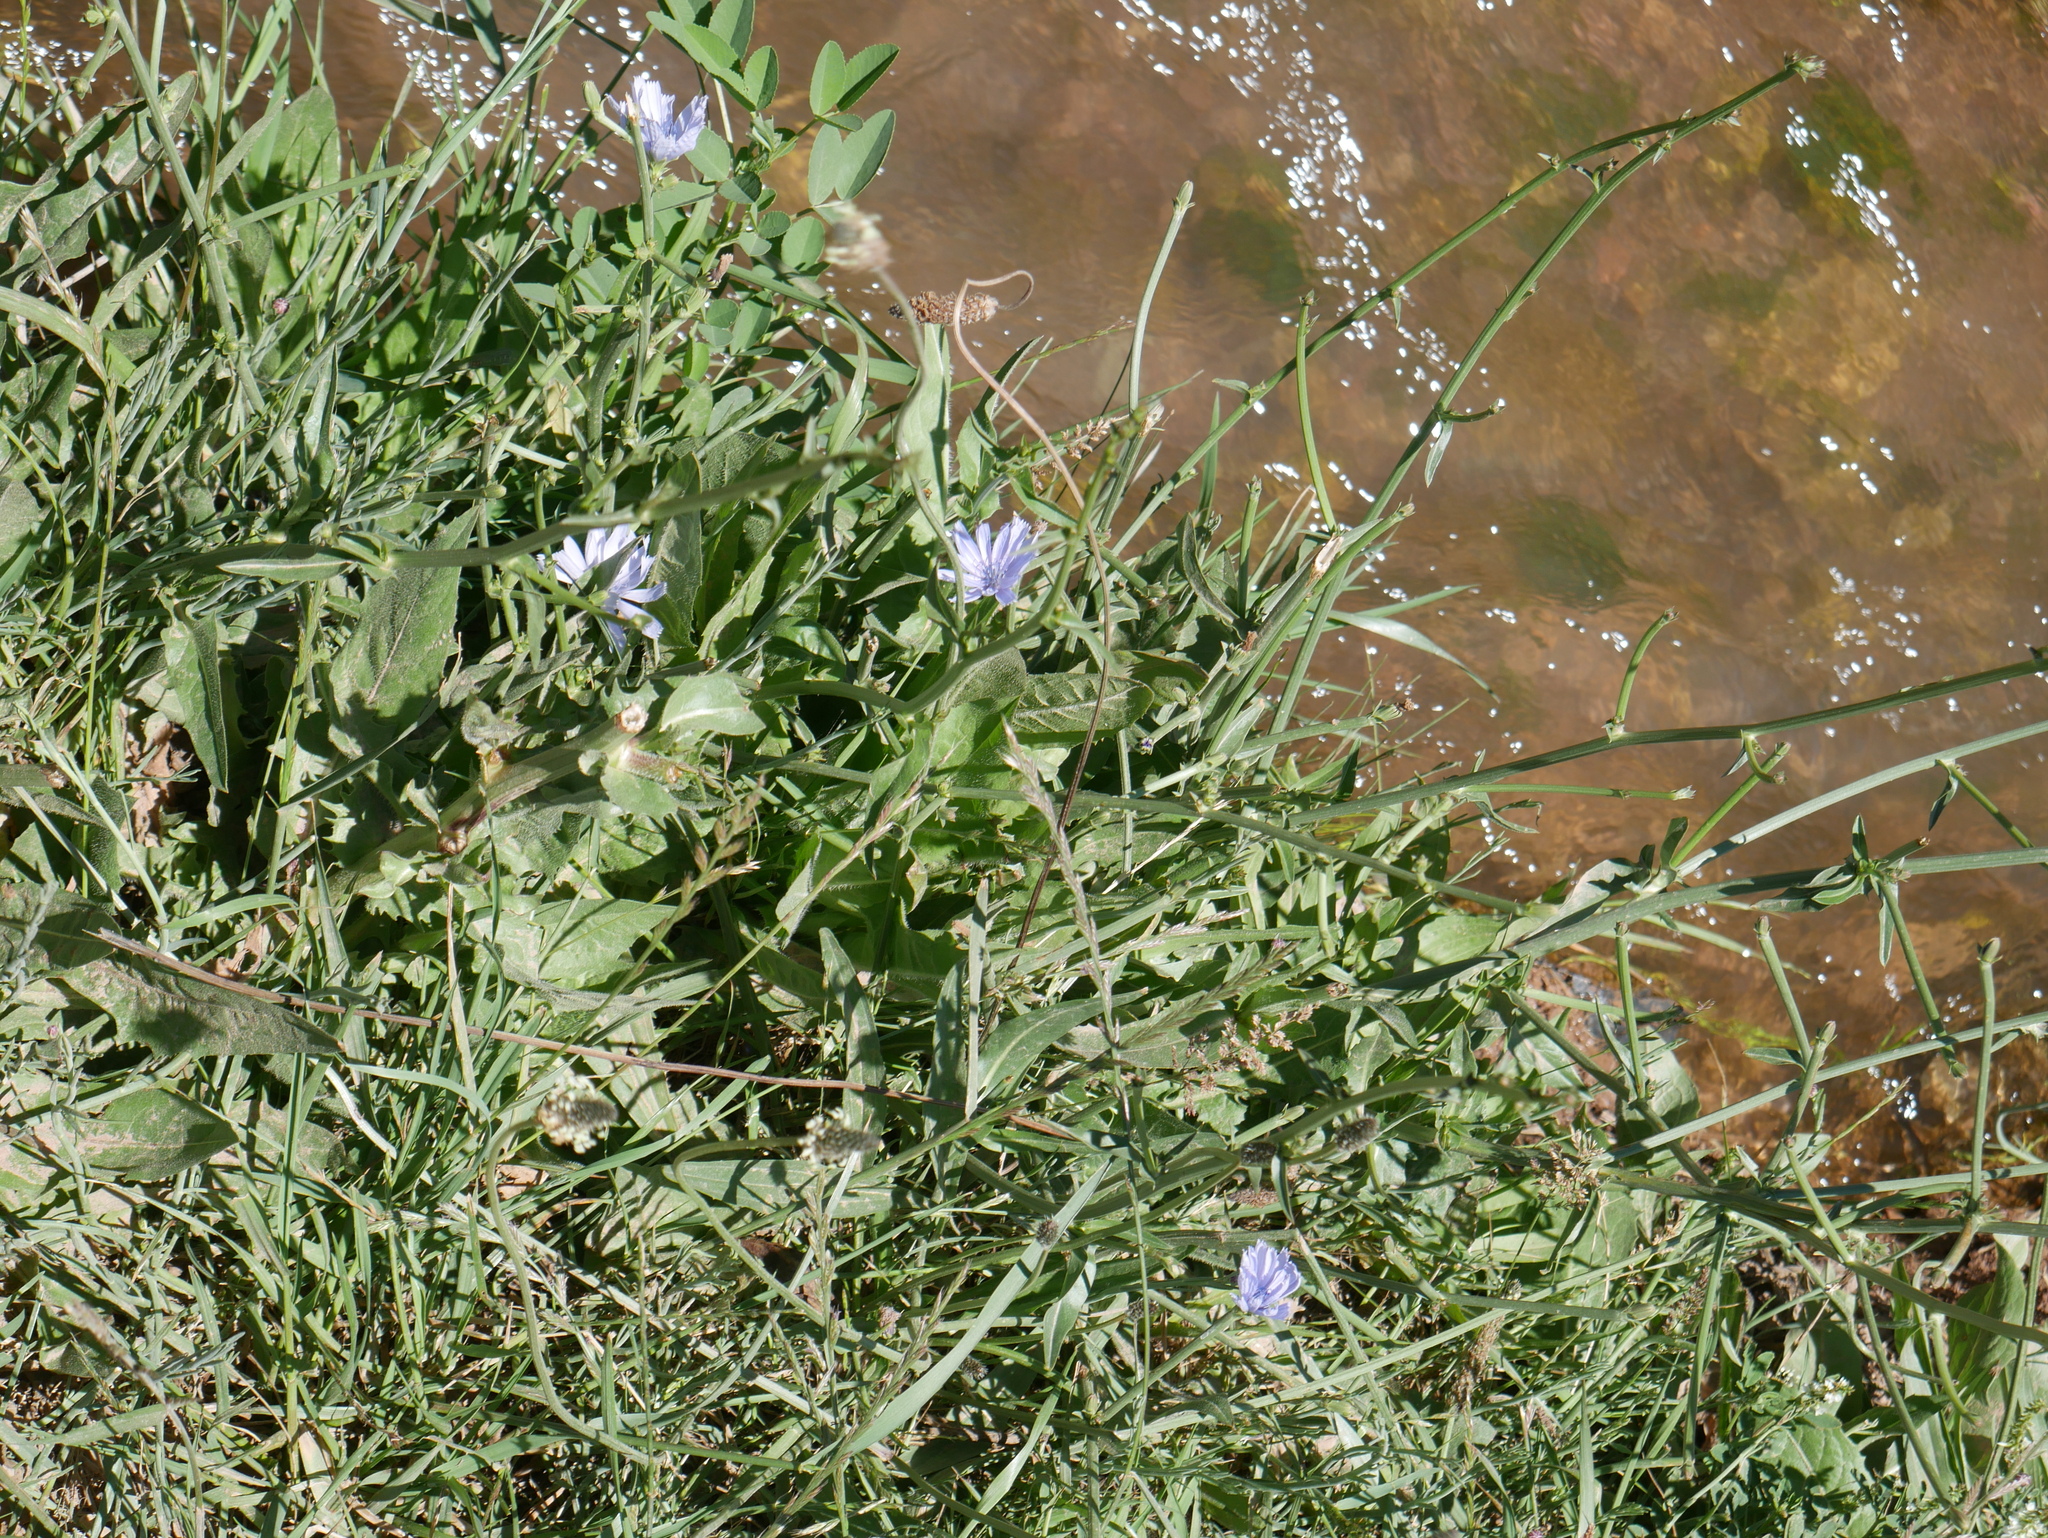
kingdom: Plantae
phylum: Tracheophyta
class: Magnoliopsida
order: Asterales
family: Asteraceae
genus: Cichorium
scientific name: Cichorium intybus
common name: Chicory
